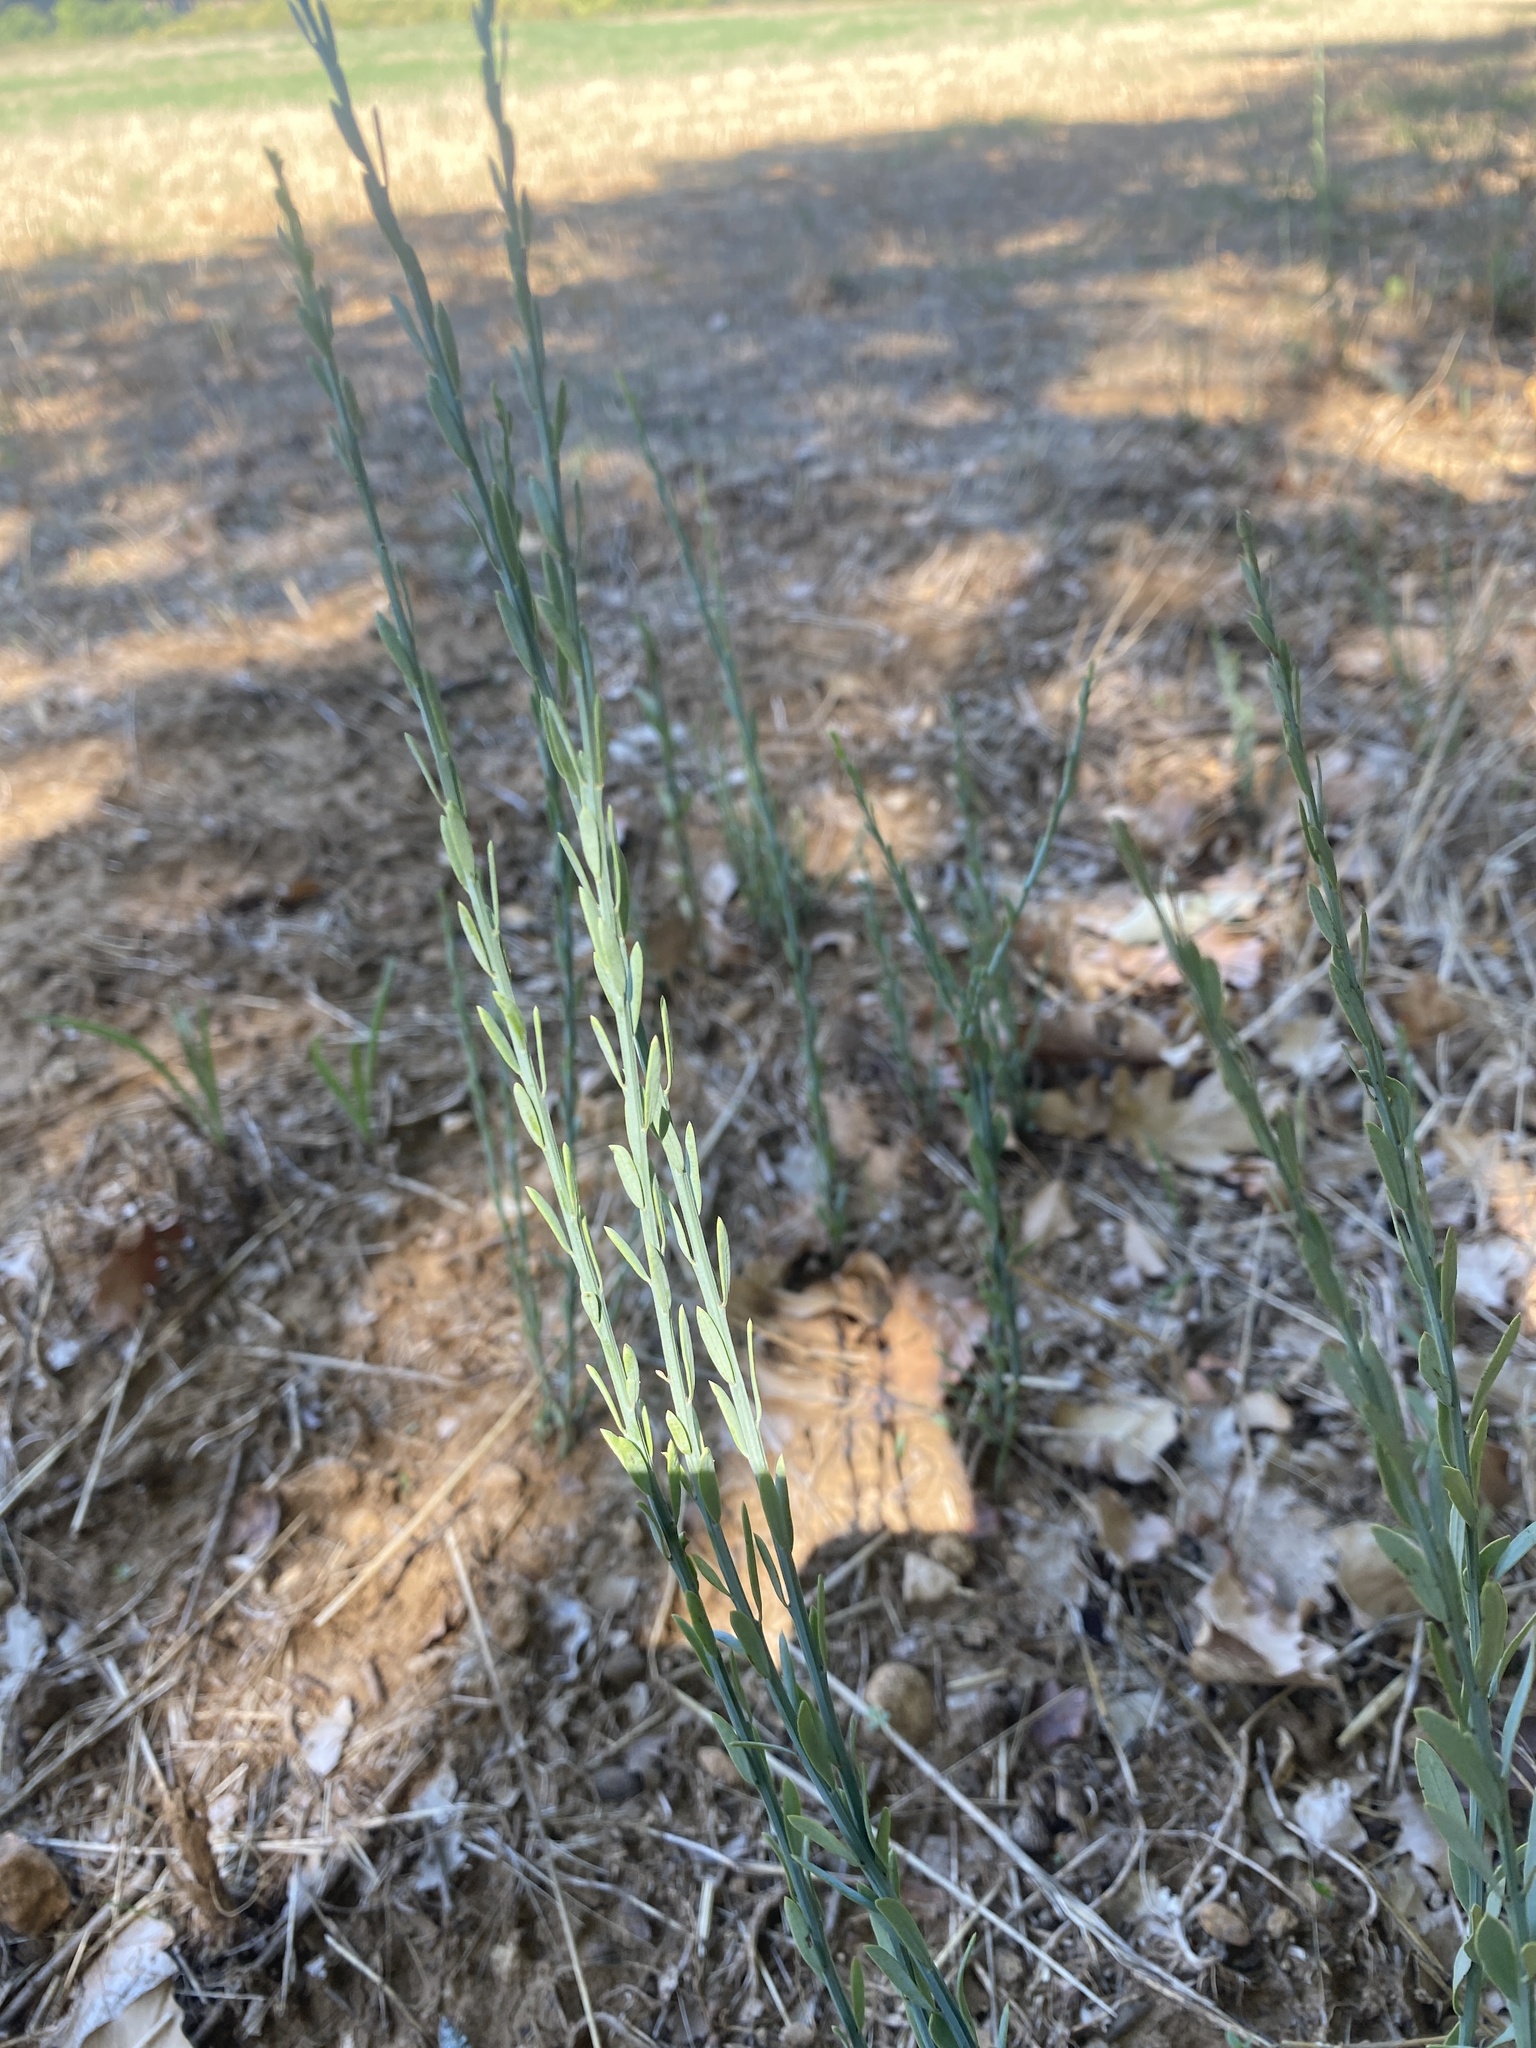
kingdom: Plantae
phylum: Tracheophyta
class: Magnoliopsida
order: Santalales
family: Santalaceae
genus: Osyris
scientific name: Osyris alba
